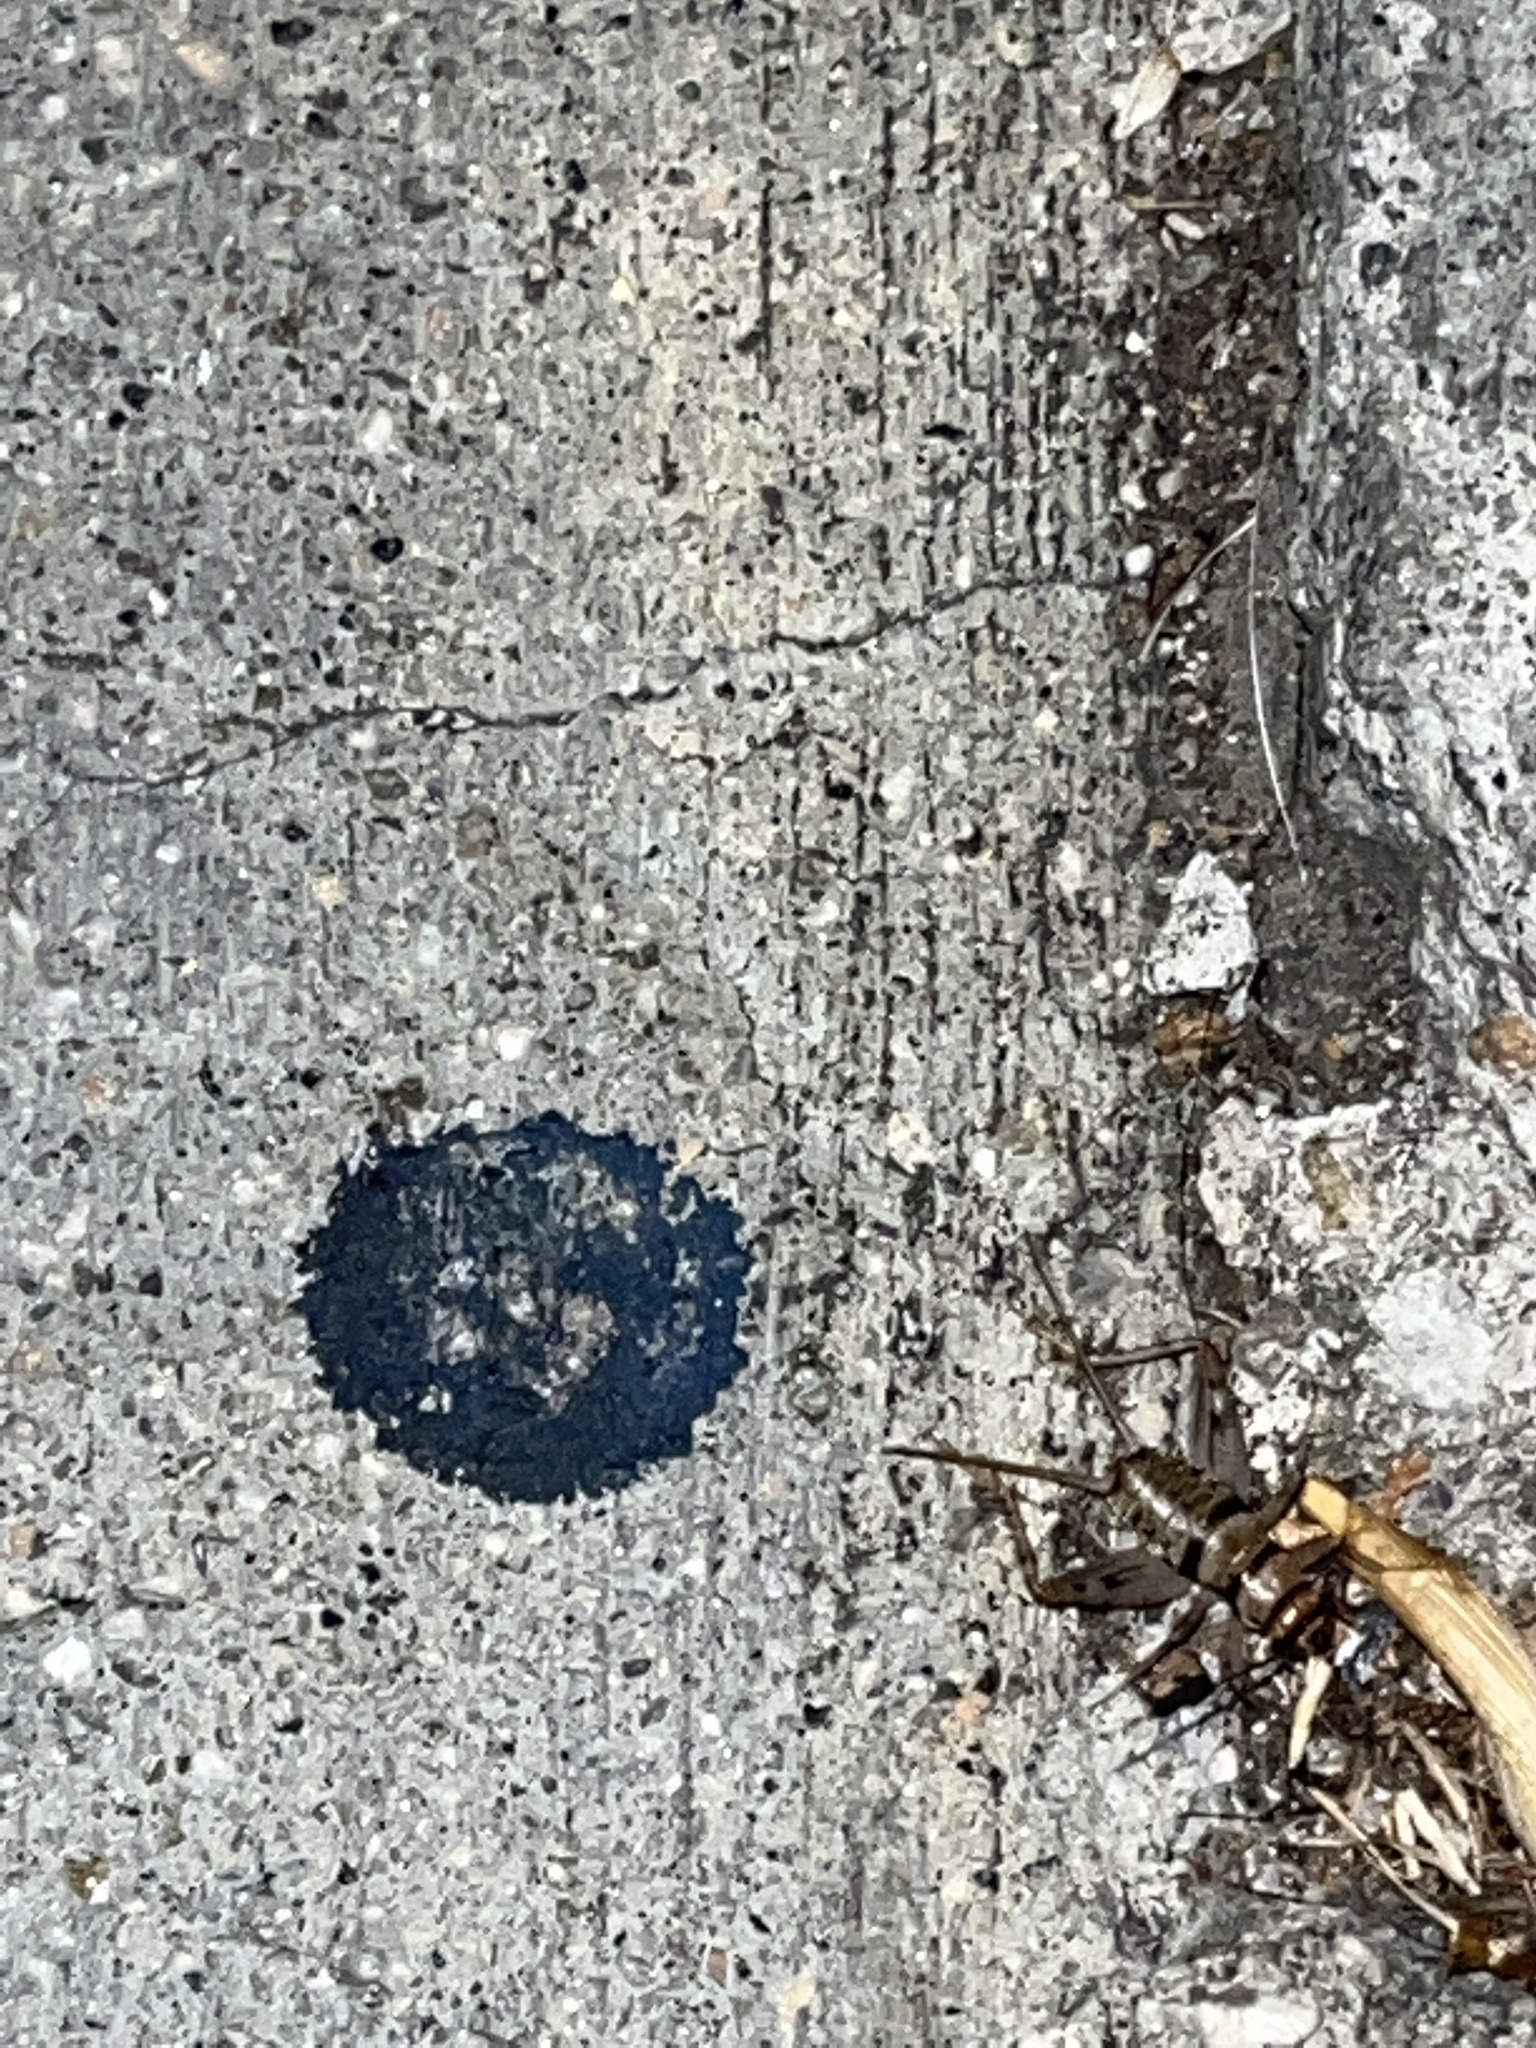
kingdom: Animalia
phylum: Arthropoda
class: Insecta
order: Orthoptera
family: Gryllidae
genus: Gryllodes
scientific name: Gryllodes sigillatus
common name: Tropical house cricket
